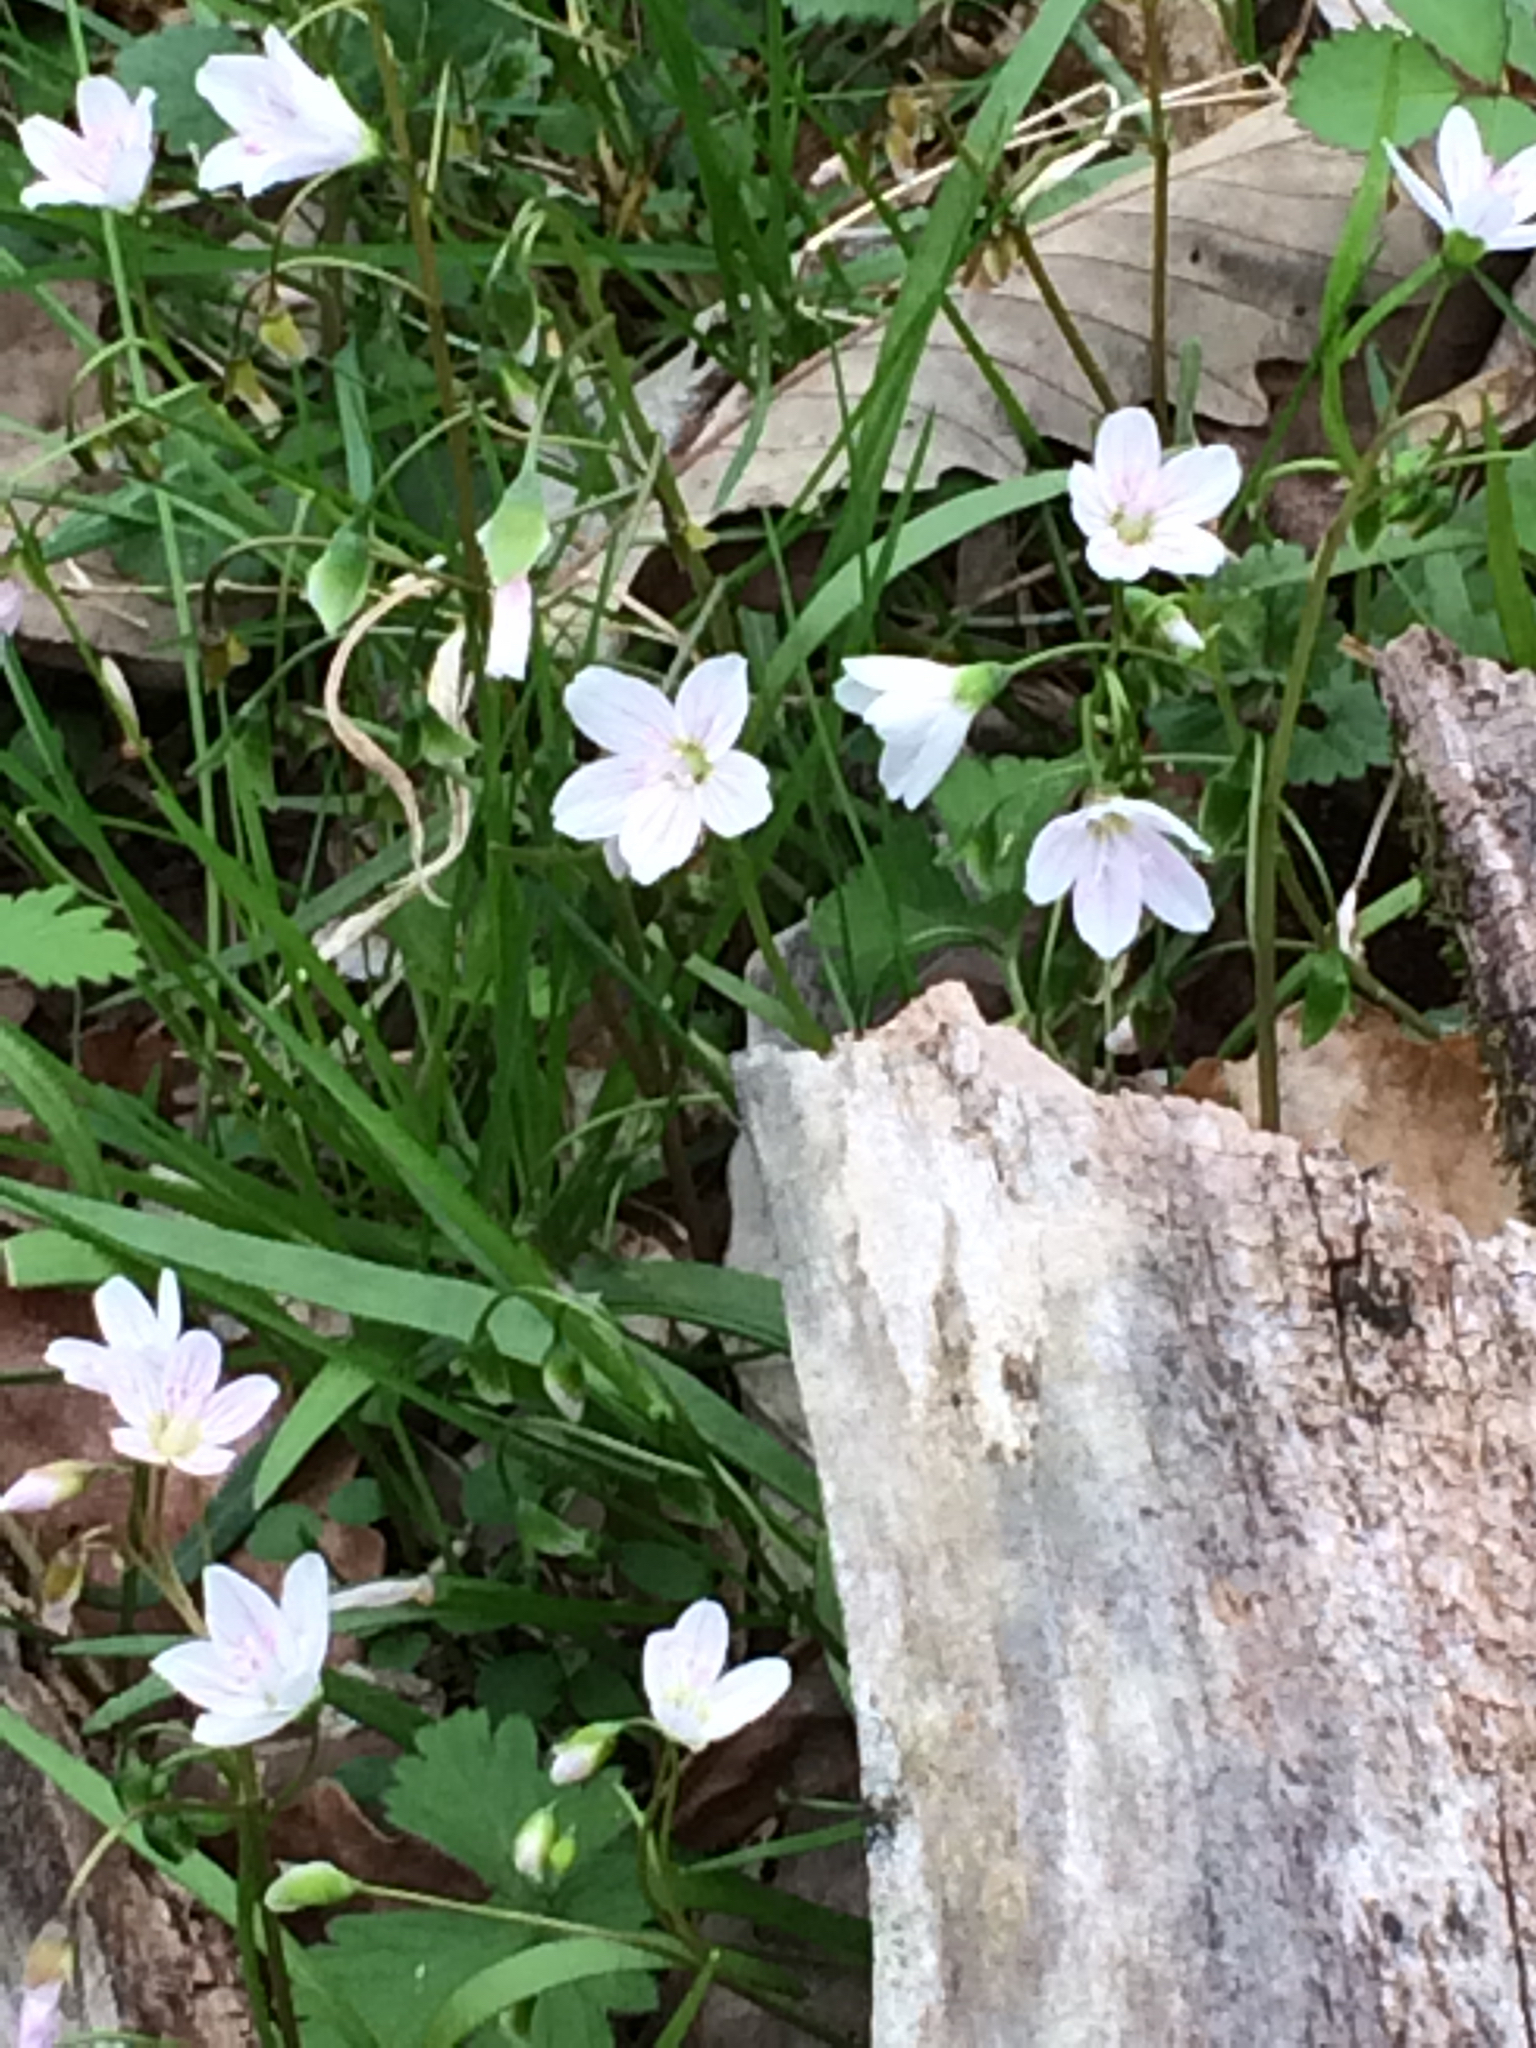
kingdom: Plantae
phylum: Tracheophyta
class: Magnoliopsida
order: Caryophyllales
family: Montiaceae
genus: Claytonia
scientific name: Claytonia virginica
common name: Virginia springbeauty
